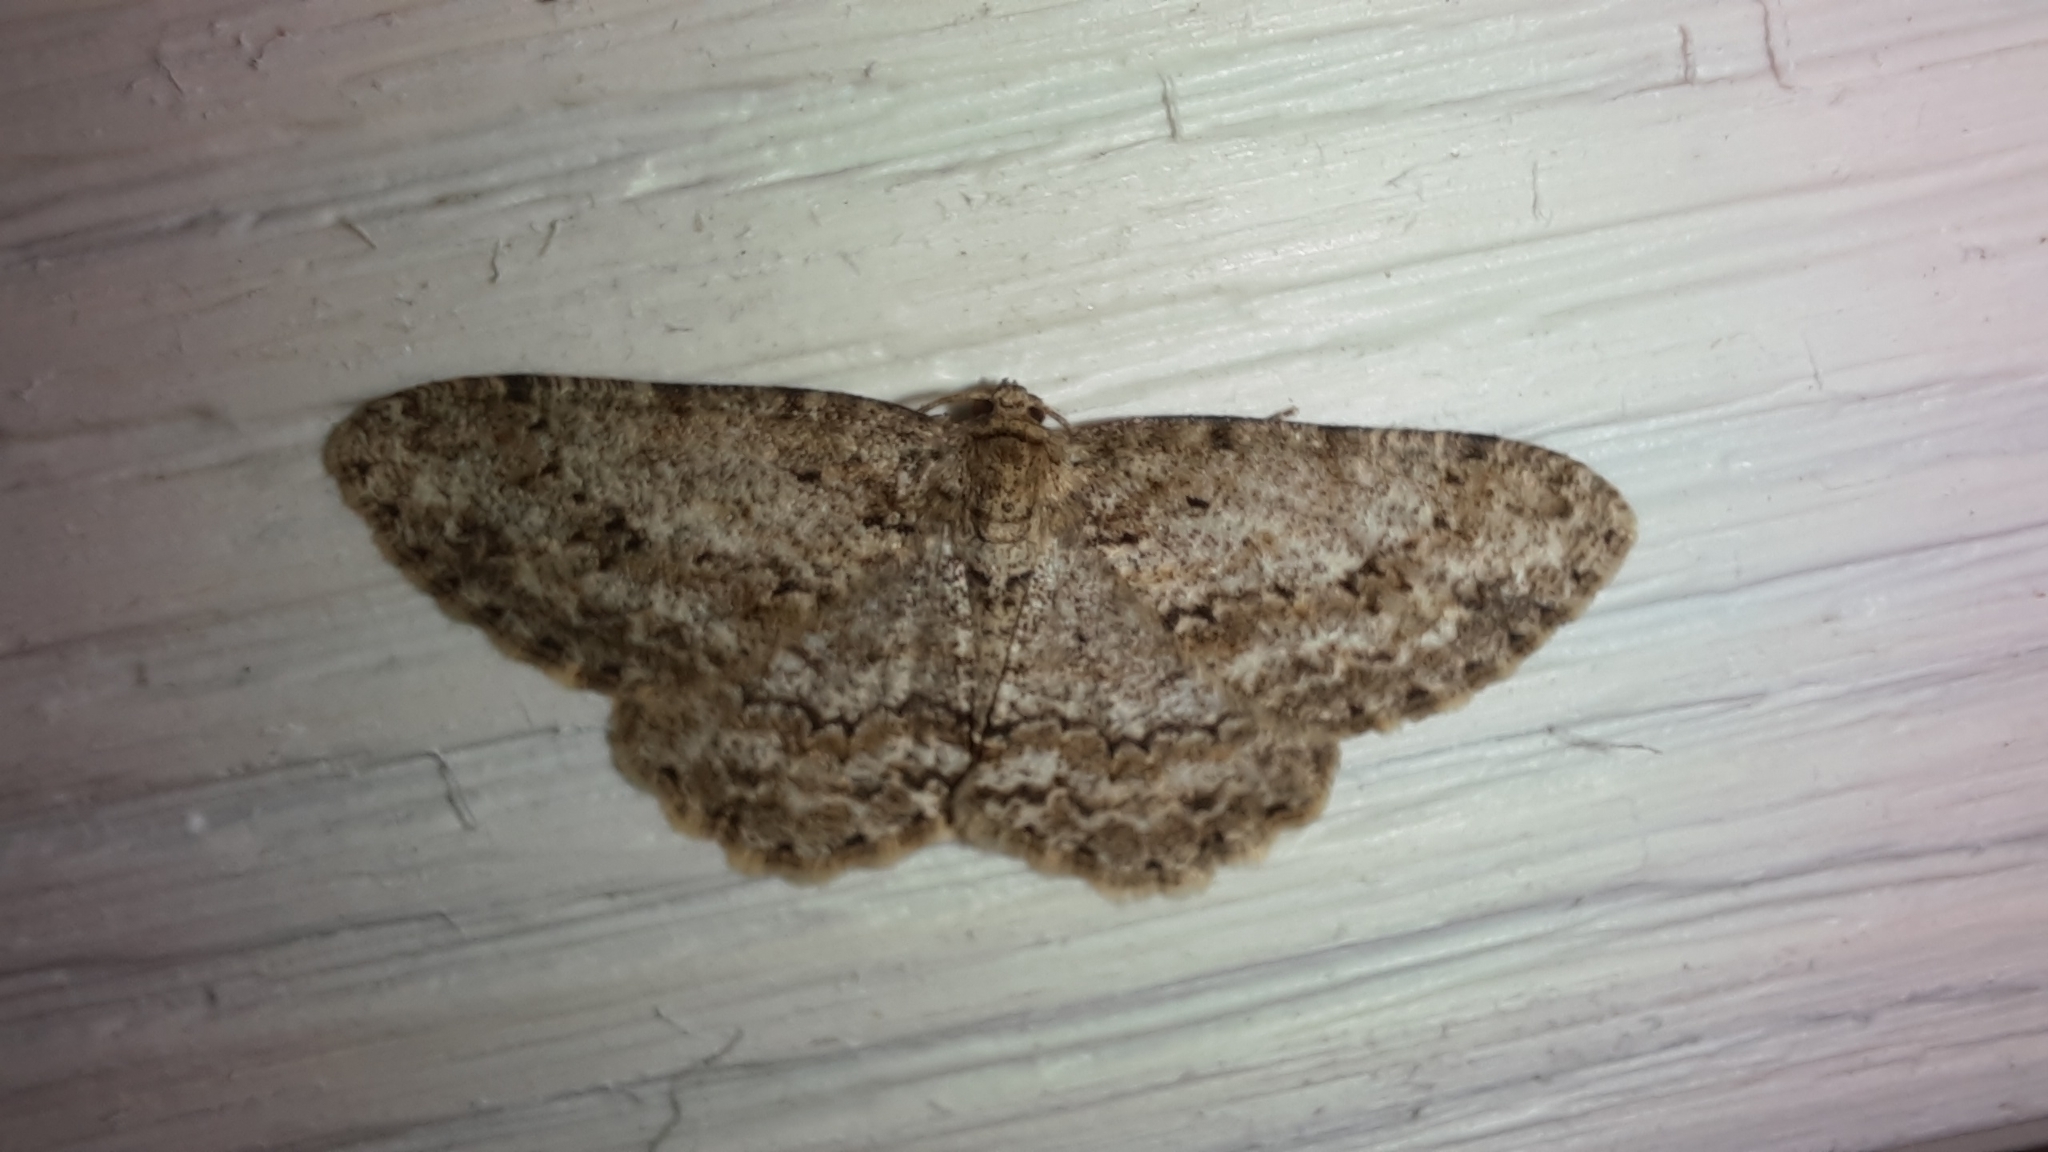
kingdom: Animalia
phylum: Arthropoda
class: Insecta
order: Lepidoptera
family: Geometridae
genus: Ectropis
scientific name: Ectropis crepuscularia
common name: Engrailed
